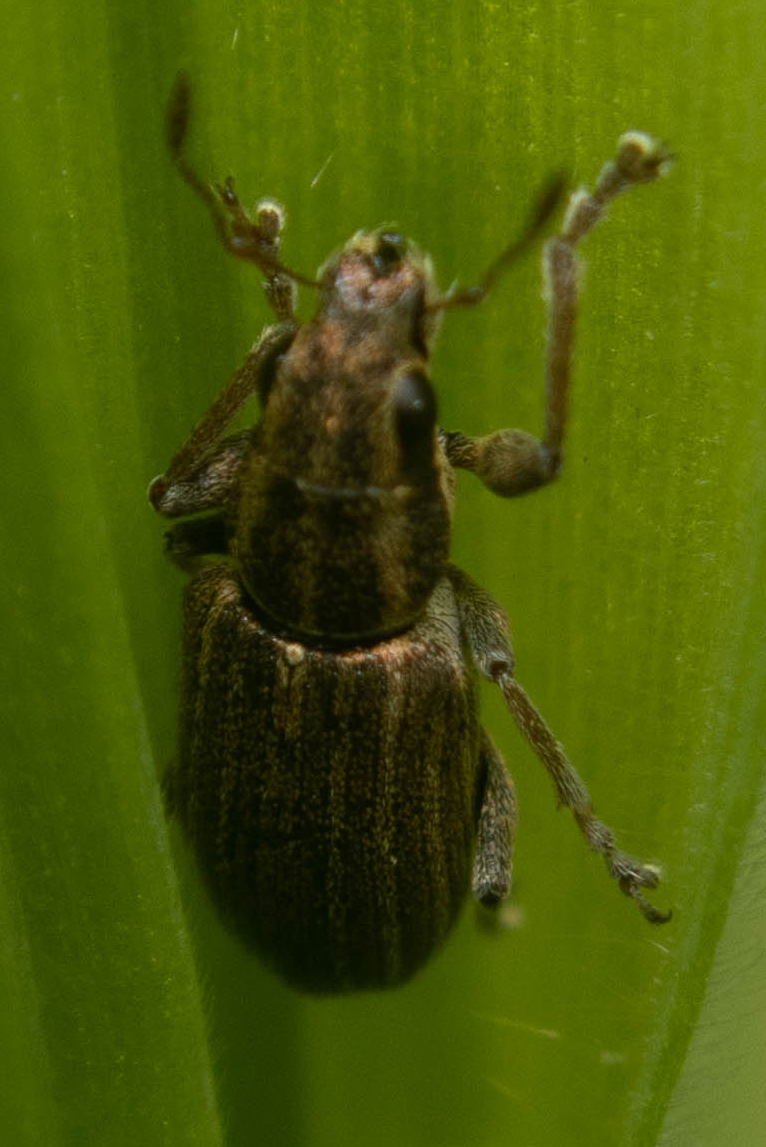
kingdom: Animalia
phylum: Arthropoda
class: Insecta
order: Coleoptera
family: Curculionidae
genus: Sitona
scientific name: Sitona lineatus
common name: Weevil
